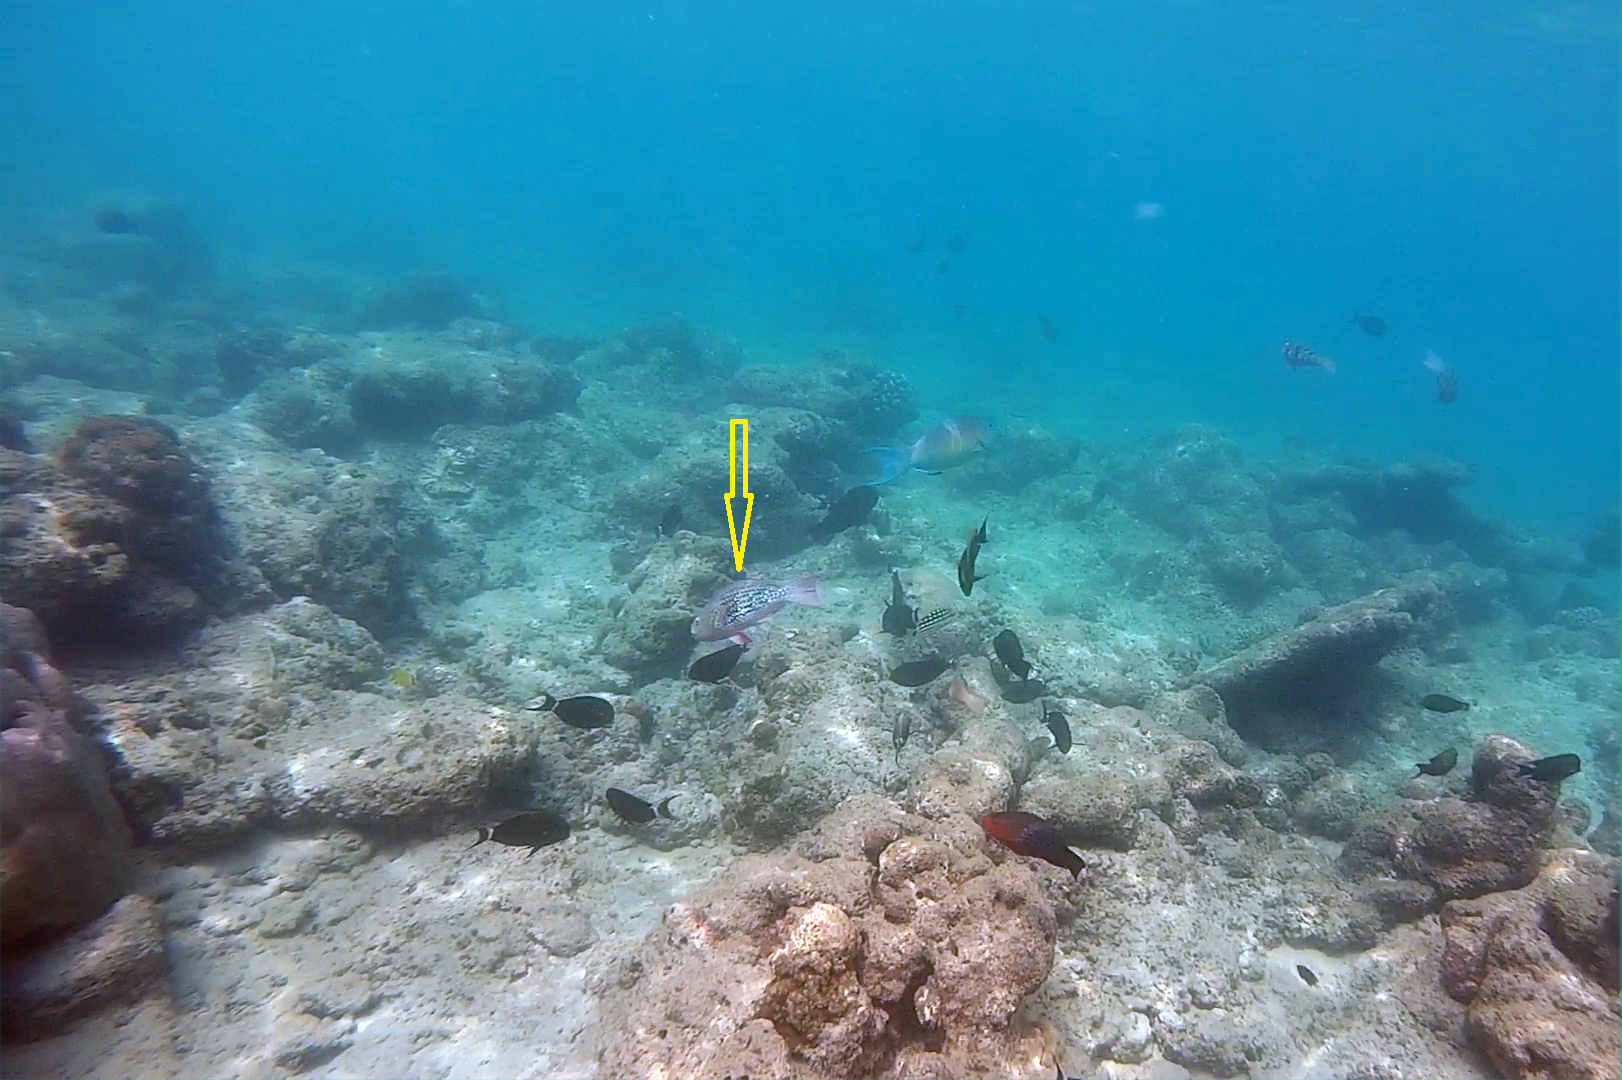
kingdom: Animalia
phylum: Chordata
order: Perciformes
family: Scaridae
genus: Scarus
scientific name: Scarus rubroviolaceus
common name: Ember parrotfish
